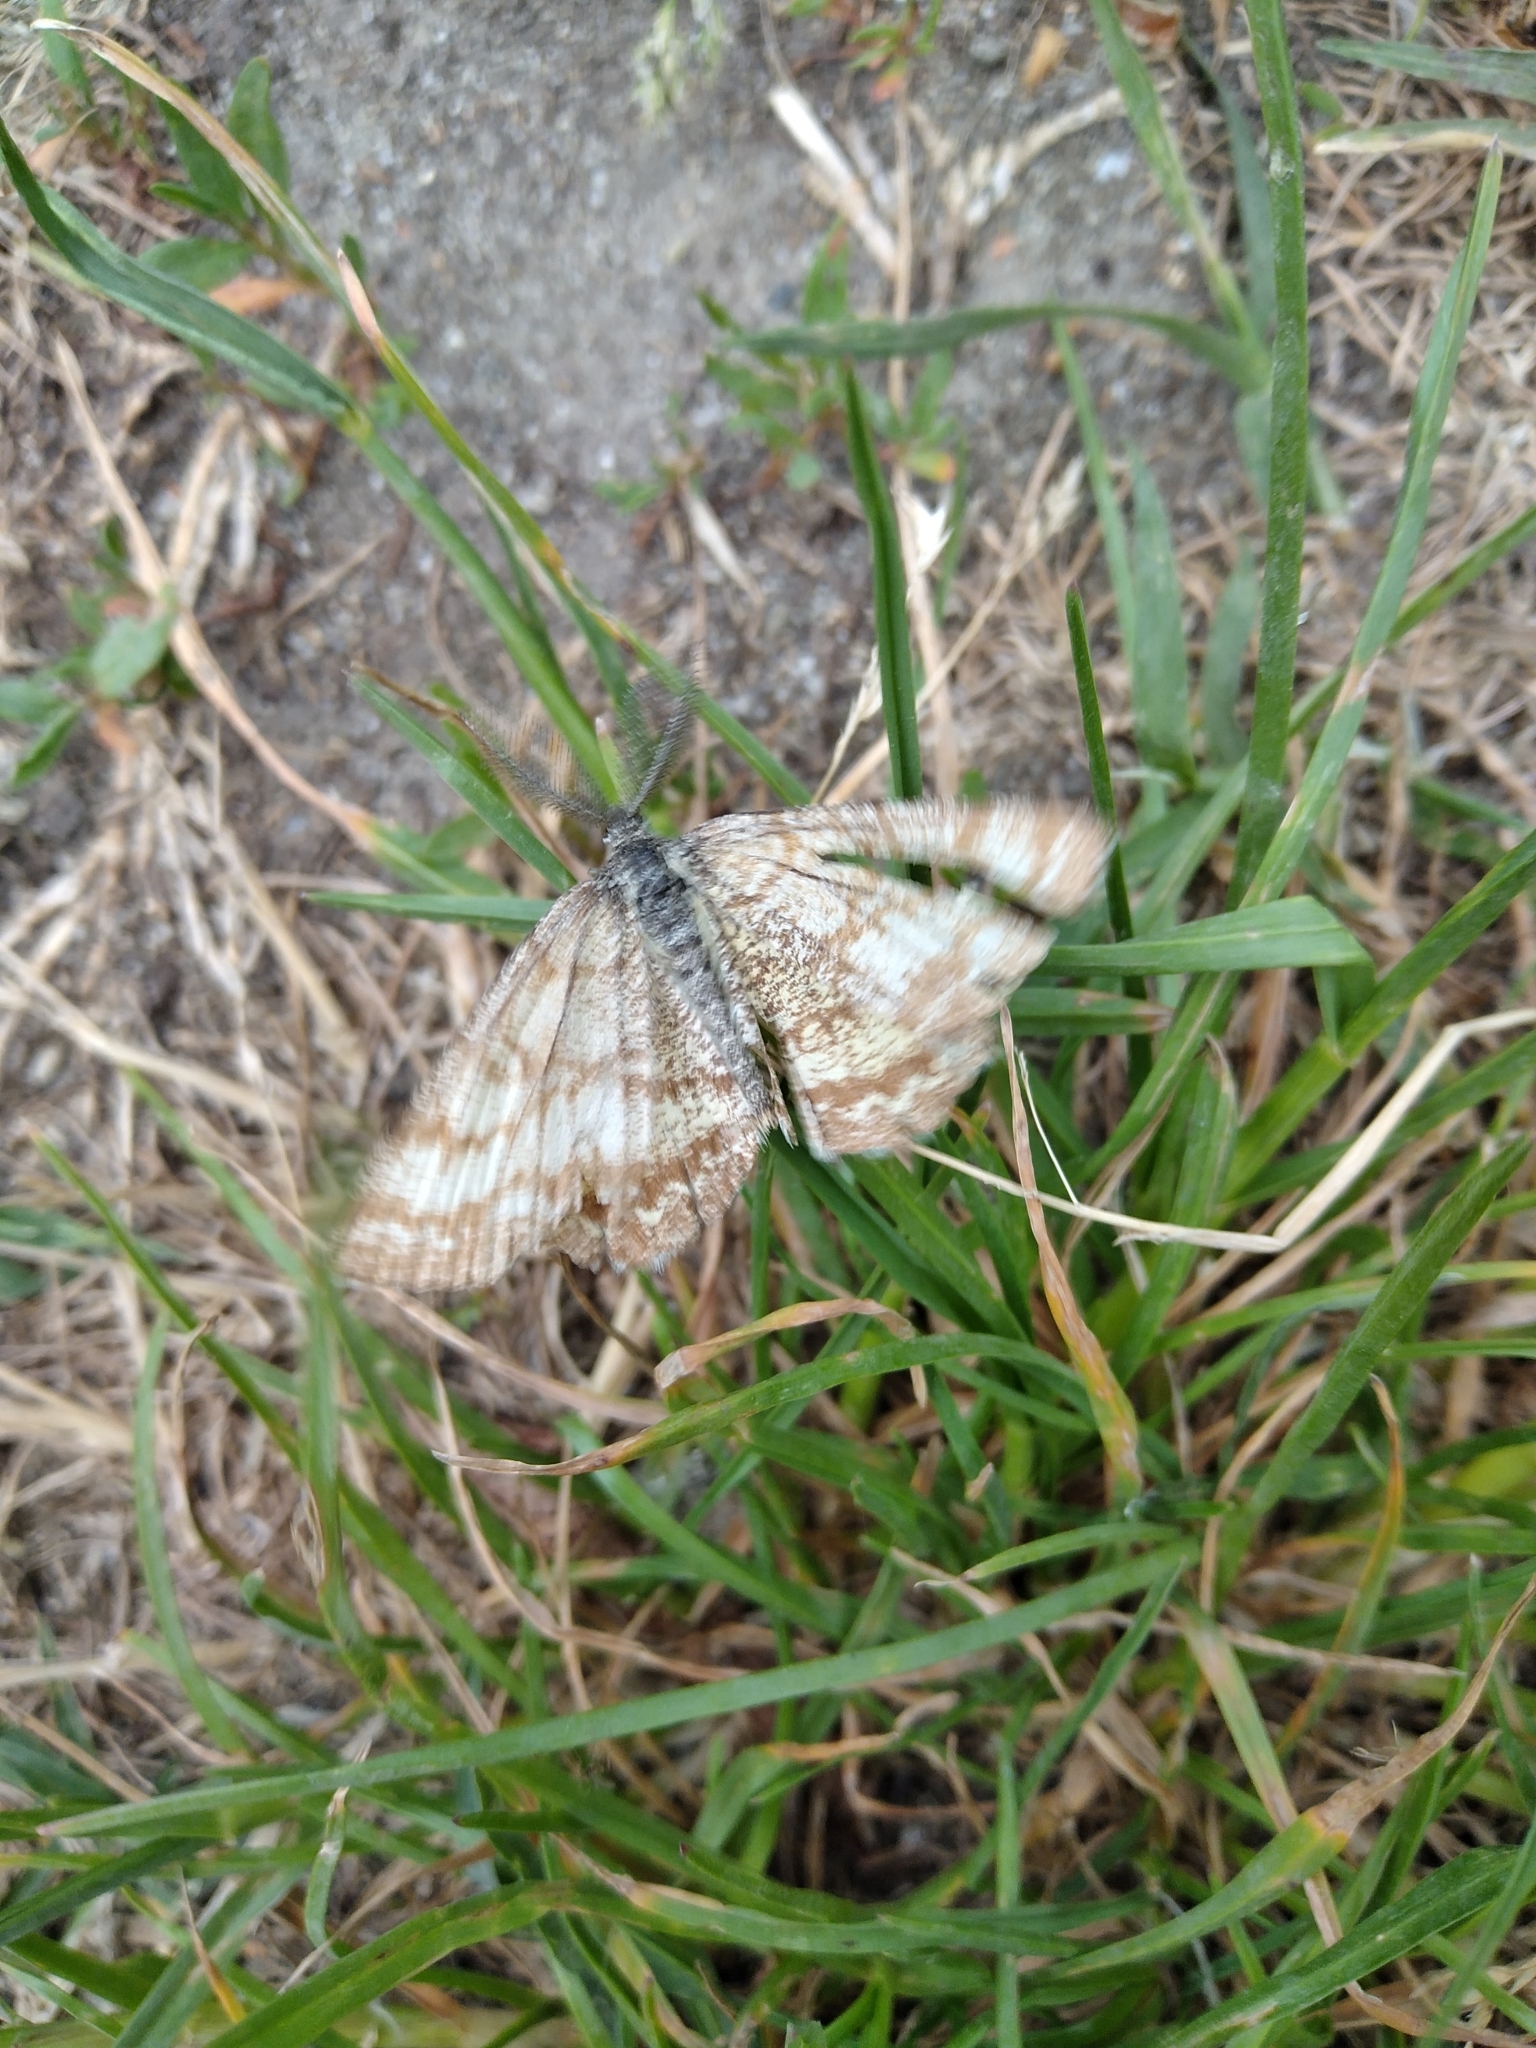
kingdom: Animalia
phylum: Arthropoda
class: Insecta
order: Lepidoptera
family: Geometridae
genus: Ematurga
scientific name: Ematurga atomaria
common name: Common heath
